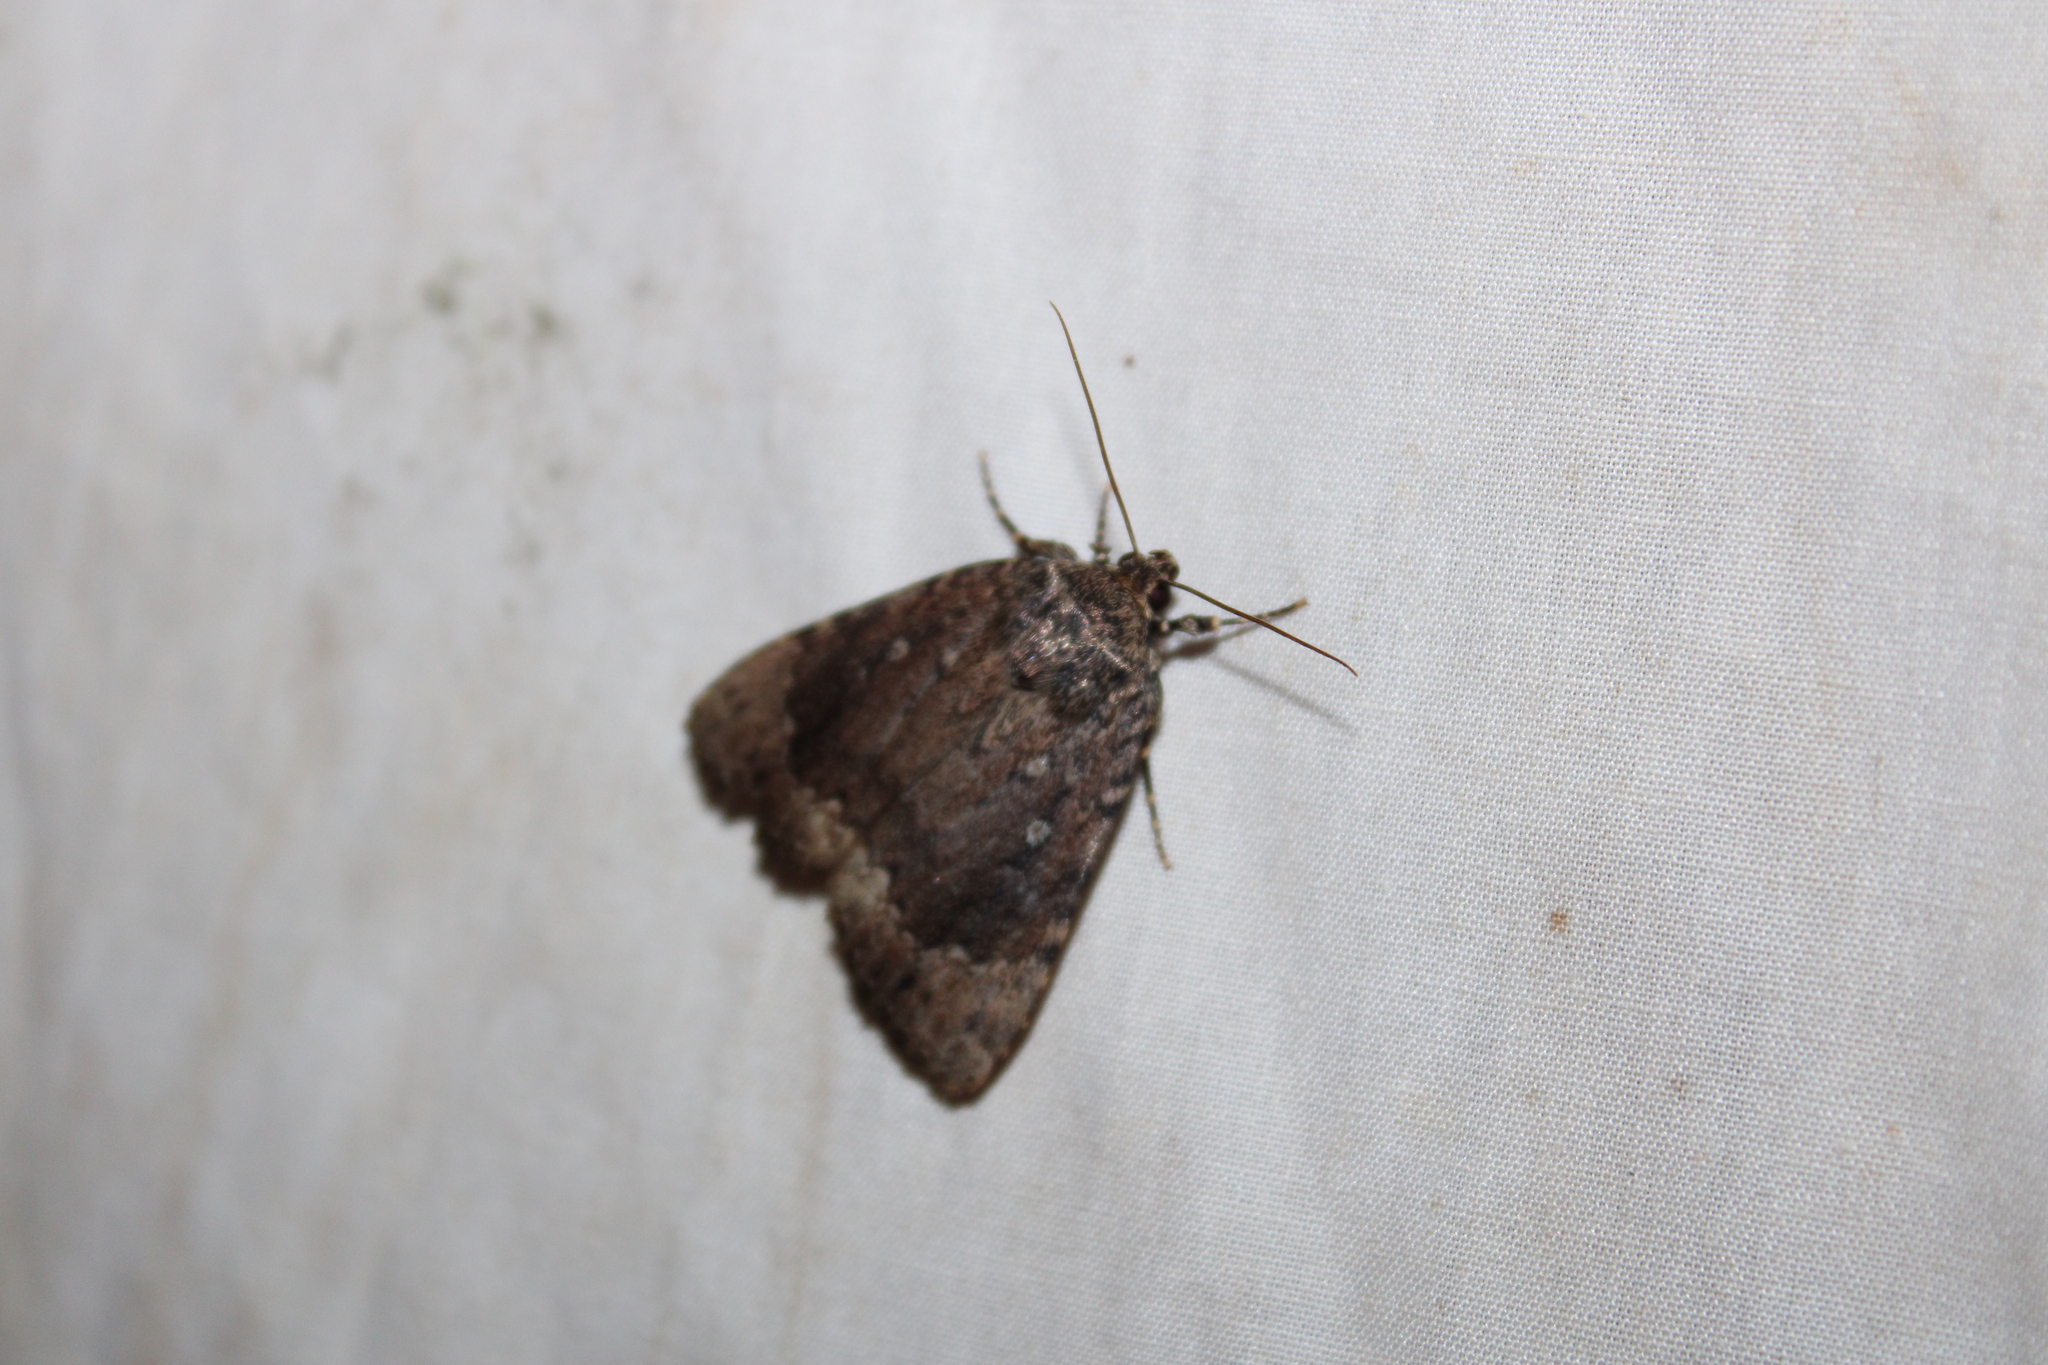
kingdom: Animalia
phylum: Arthropoda
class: Insecta
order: Lepidoptera
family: Noctuidae
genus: Amphipyra
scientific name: Amphipyra pyramidoides
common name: American copper underwing
